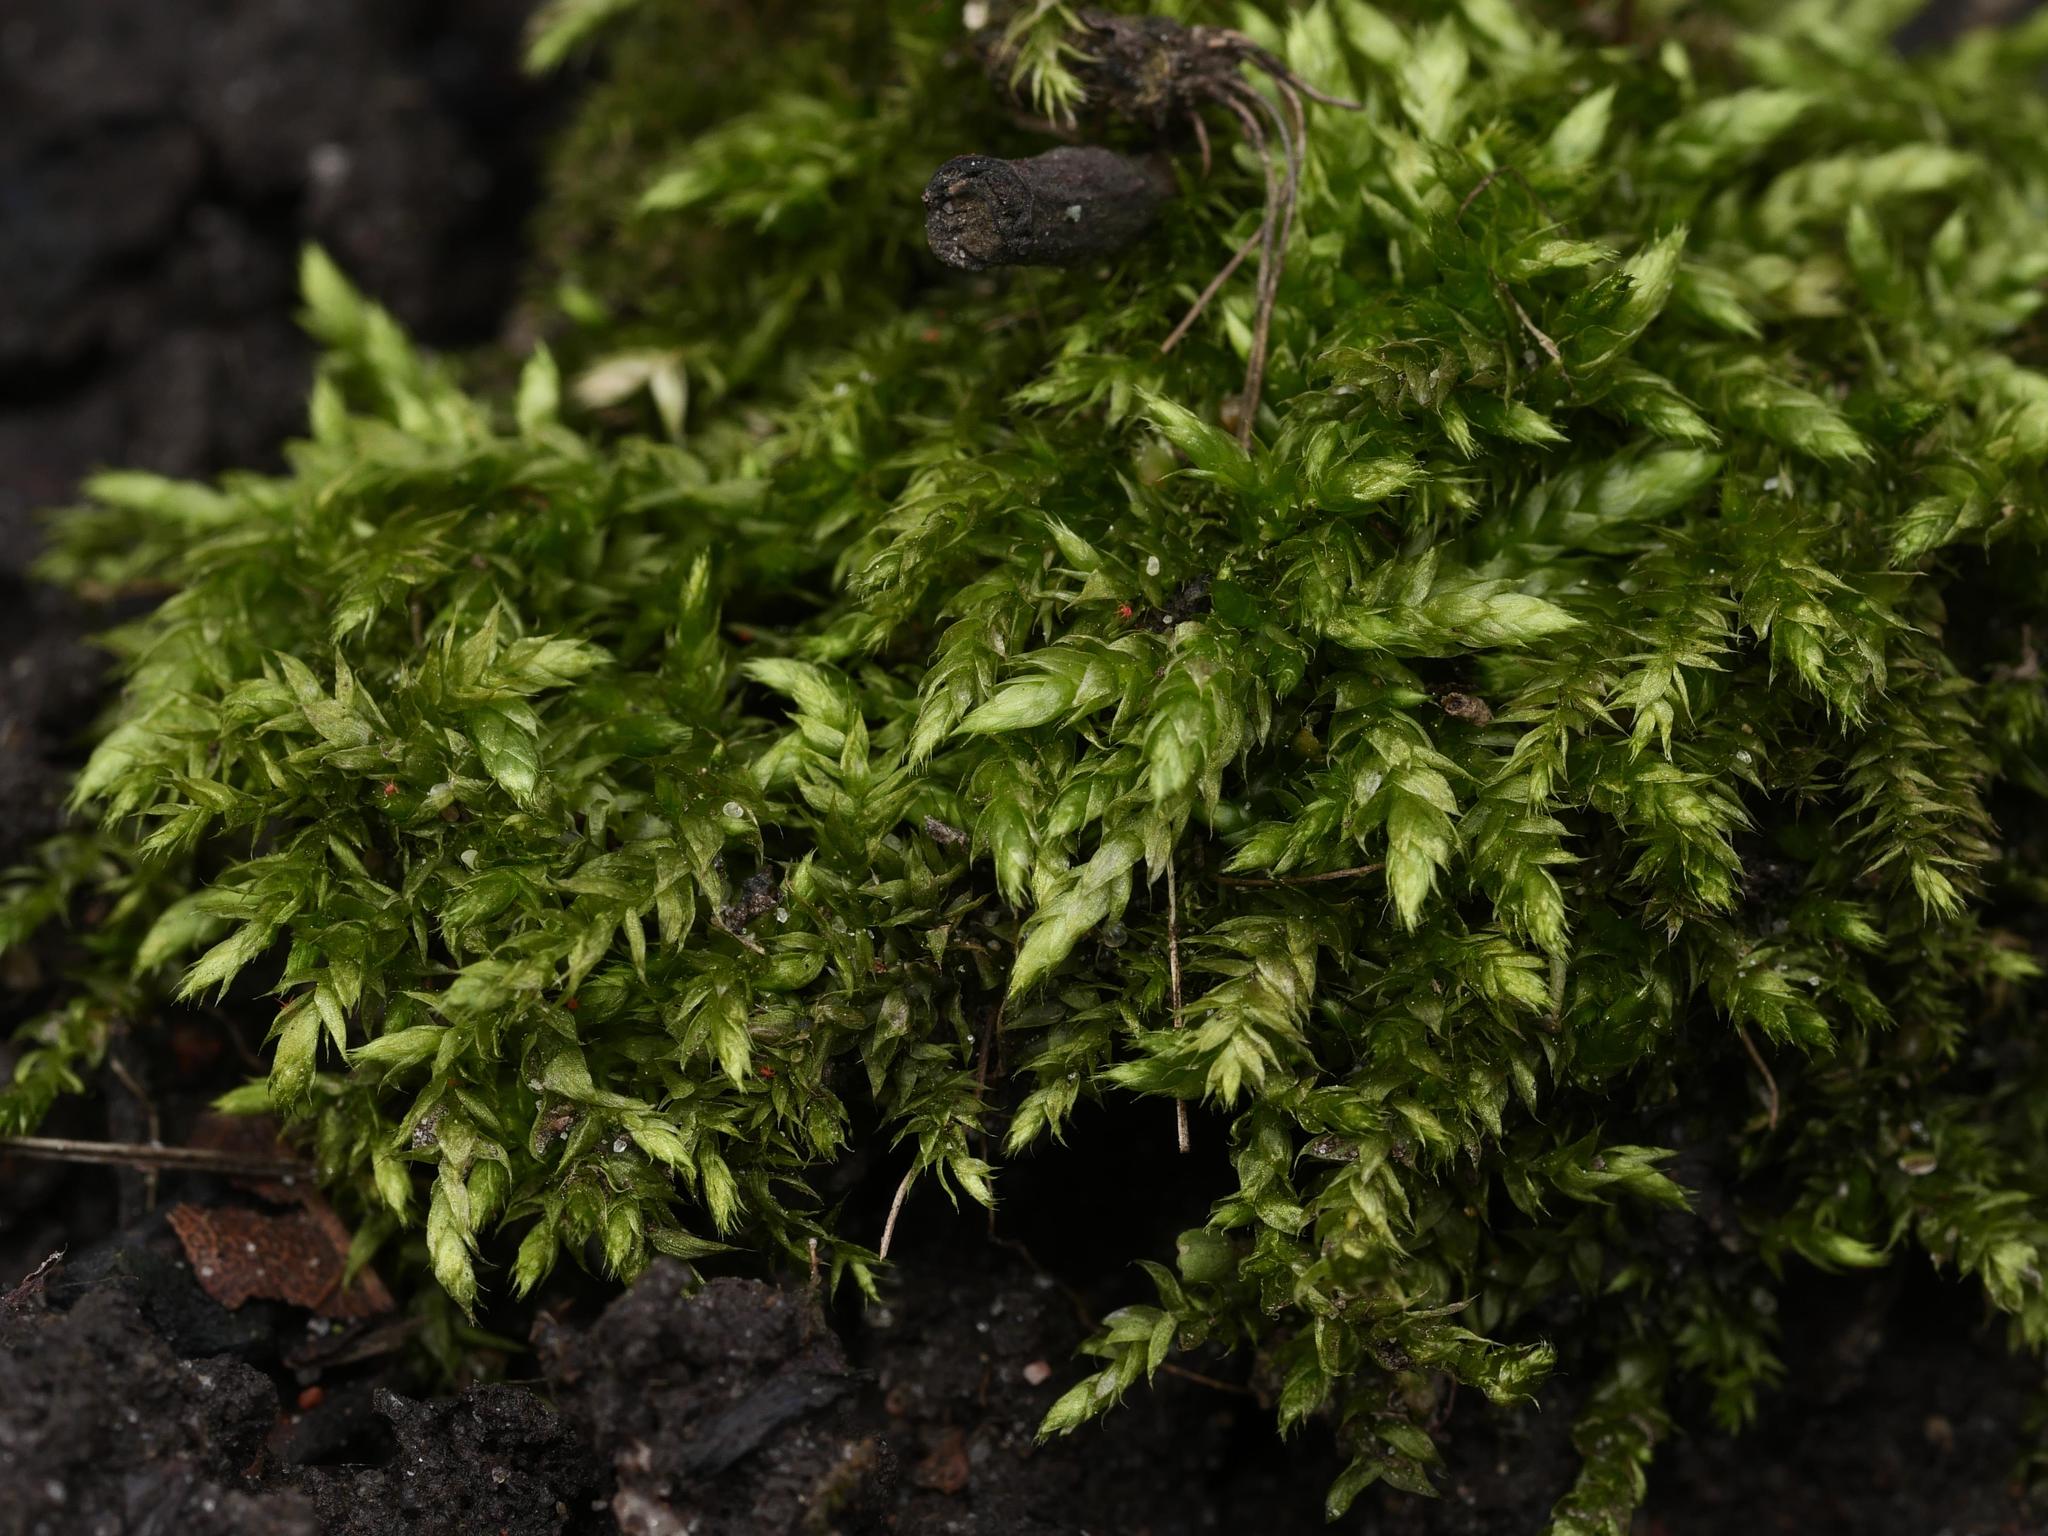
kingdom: Plantae
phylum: Bryophyta
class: Bryopsida
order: Hypnales
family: Brachytheciaceae
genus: Brachythecium
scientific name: Brachythecium rutabulum
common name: Rough-stalked feather-moss
